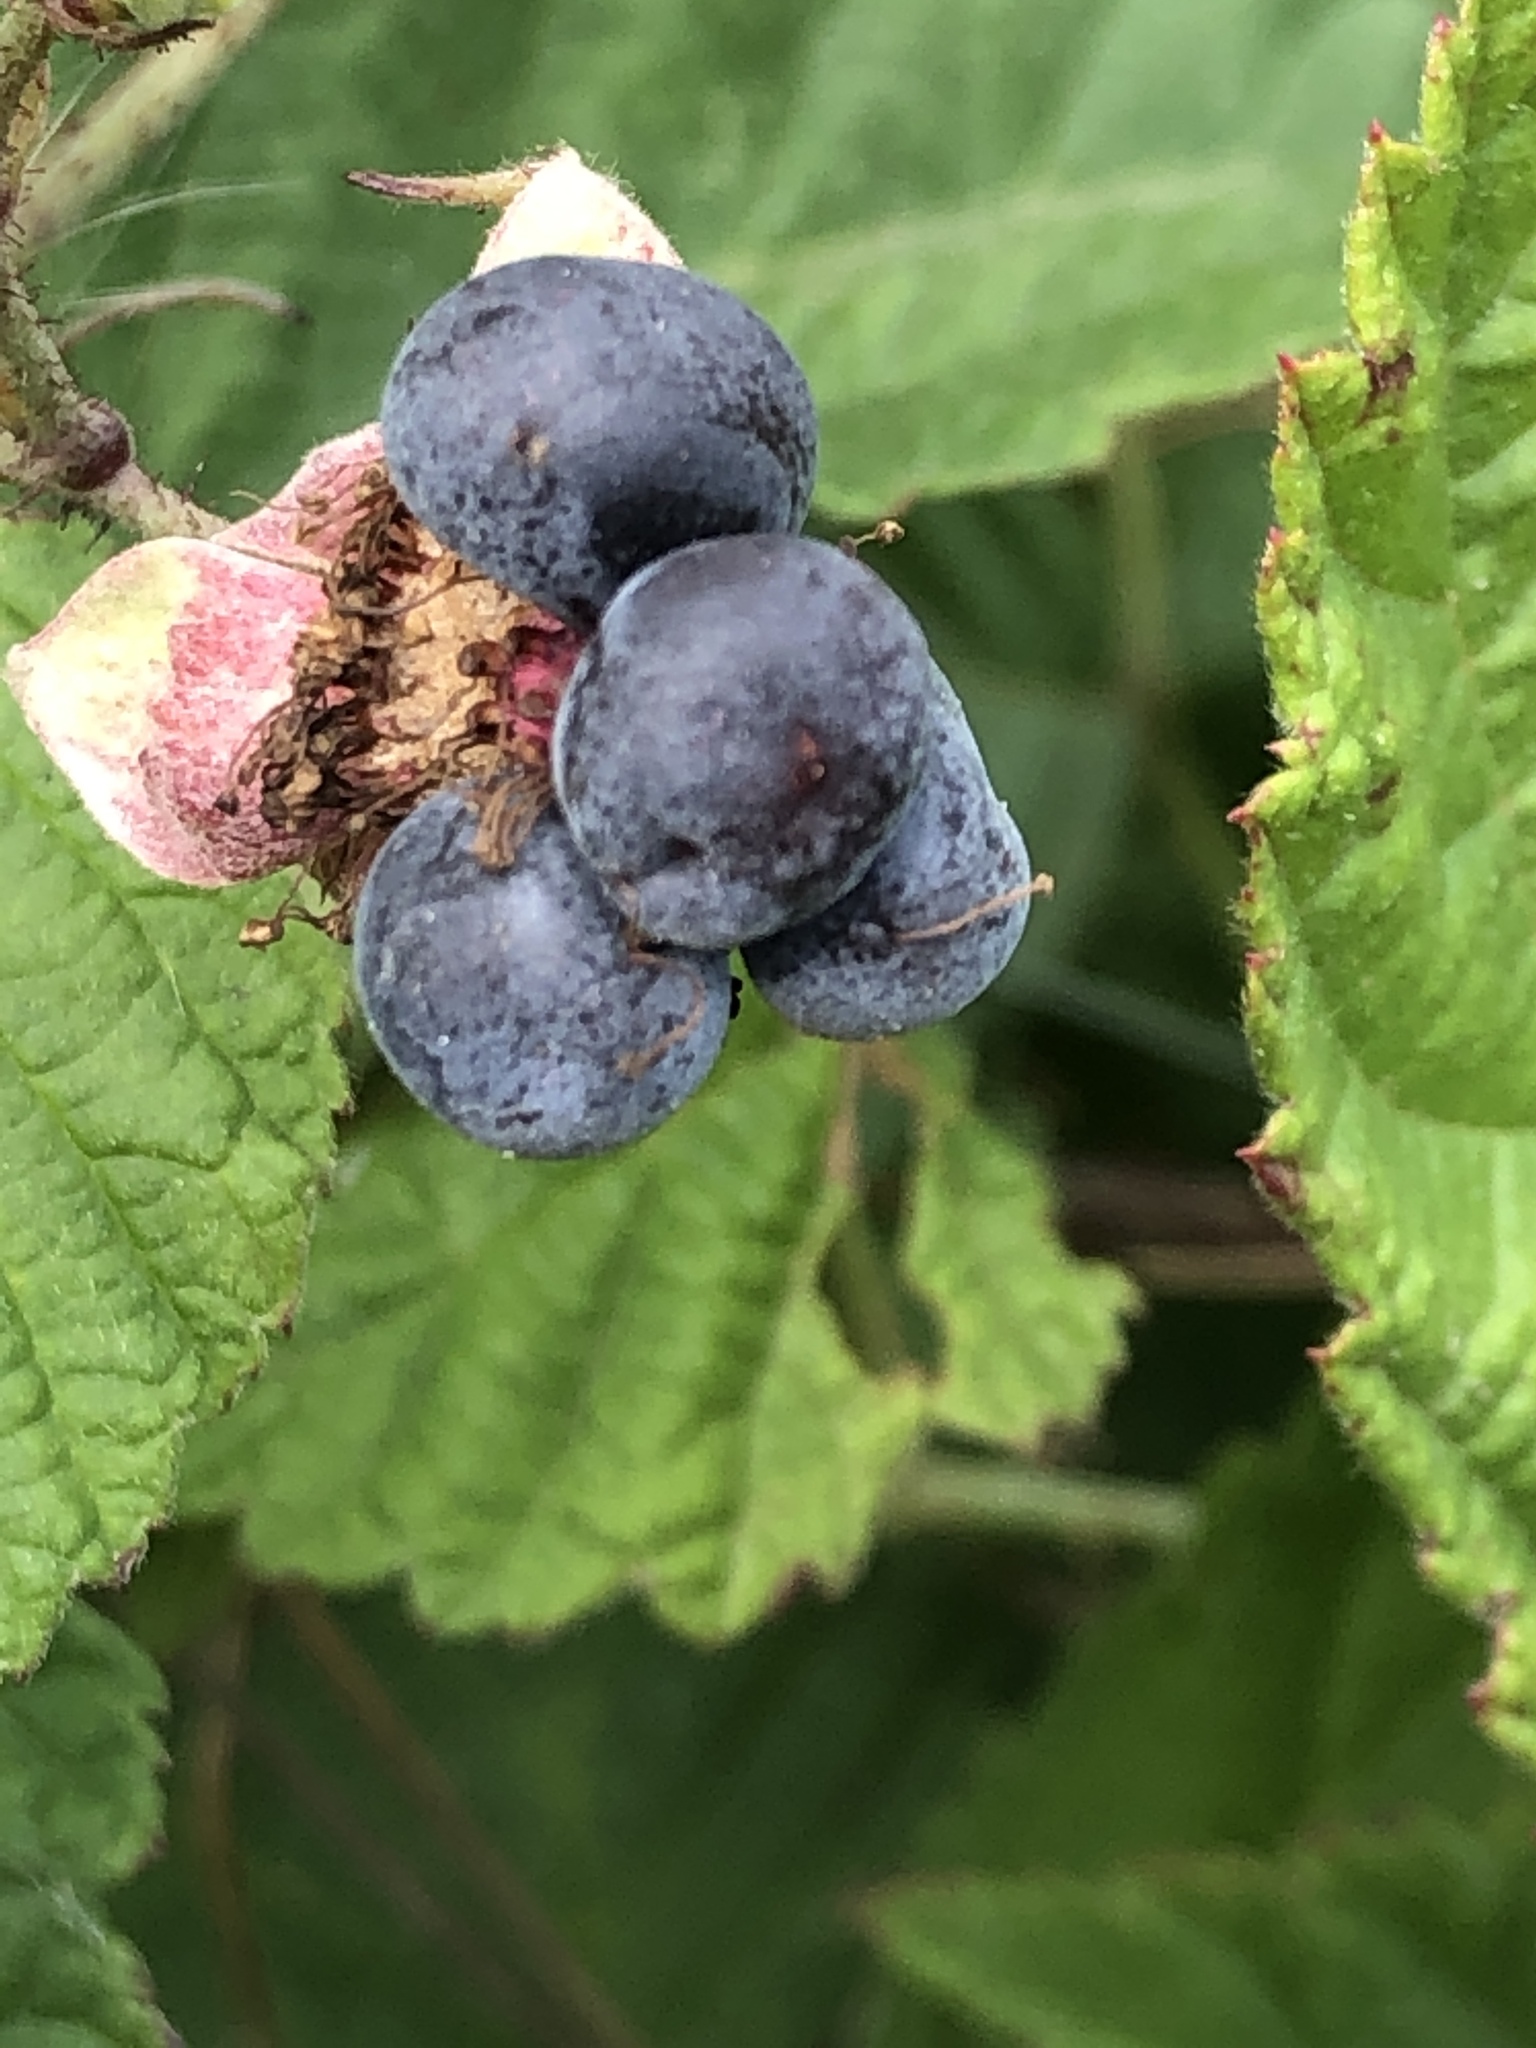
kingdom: Plantae
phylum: Tracheophyta
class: Magnoliopsida
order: Rosales
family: Rosaceae
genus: Rubus
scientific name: Rubus caesius
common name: Dewberry
